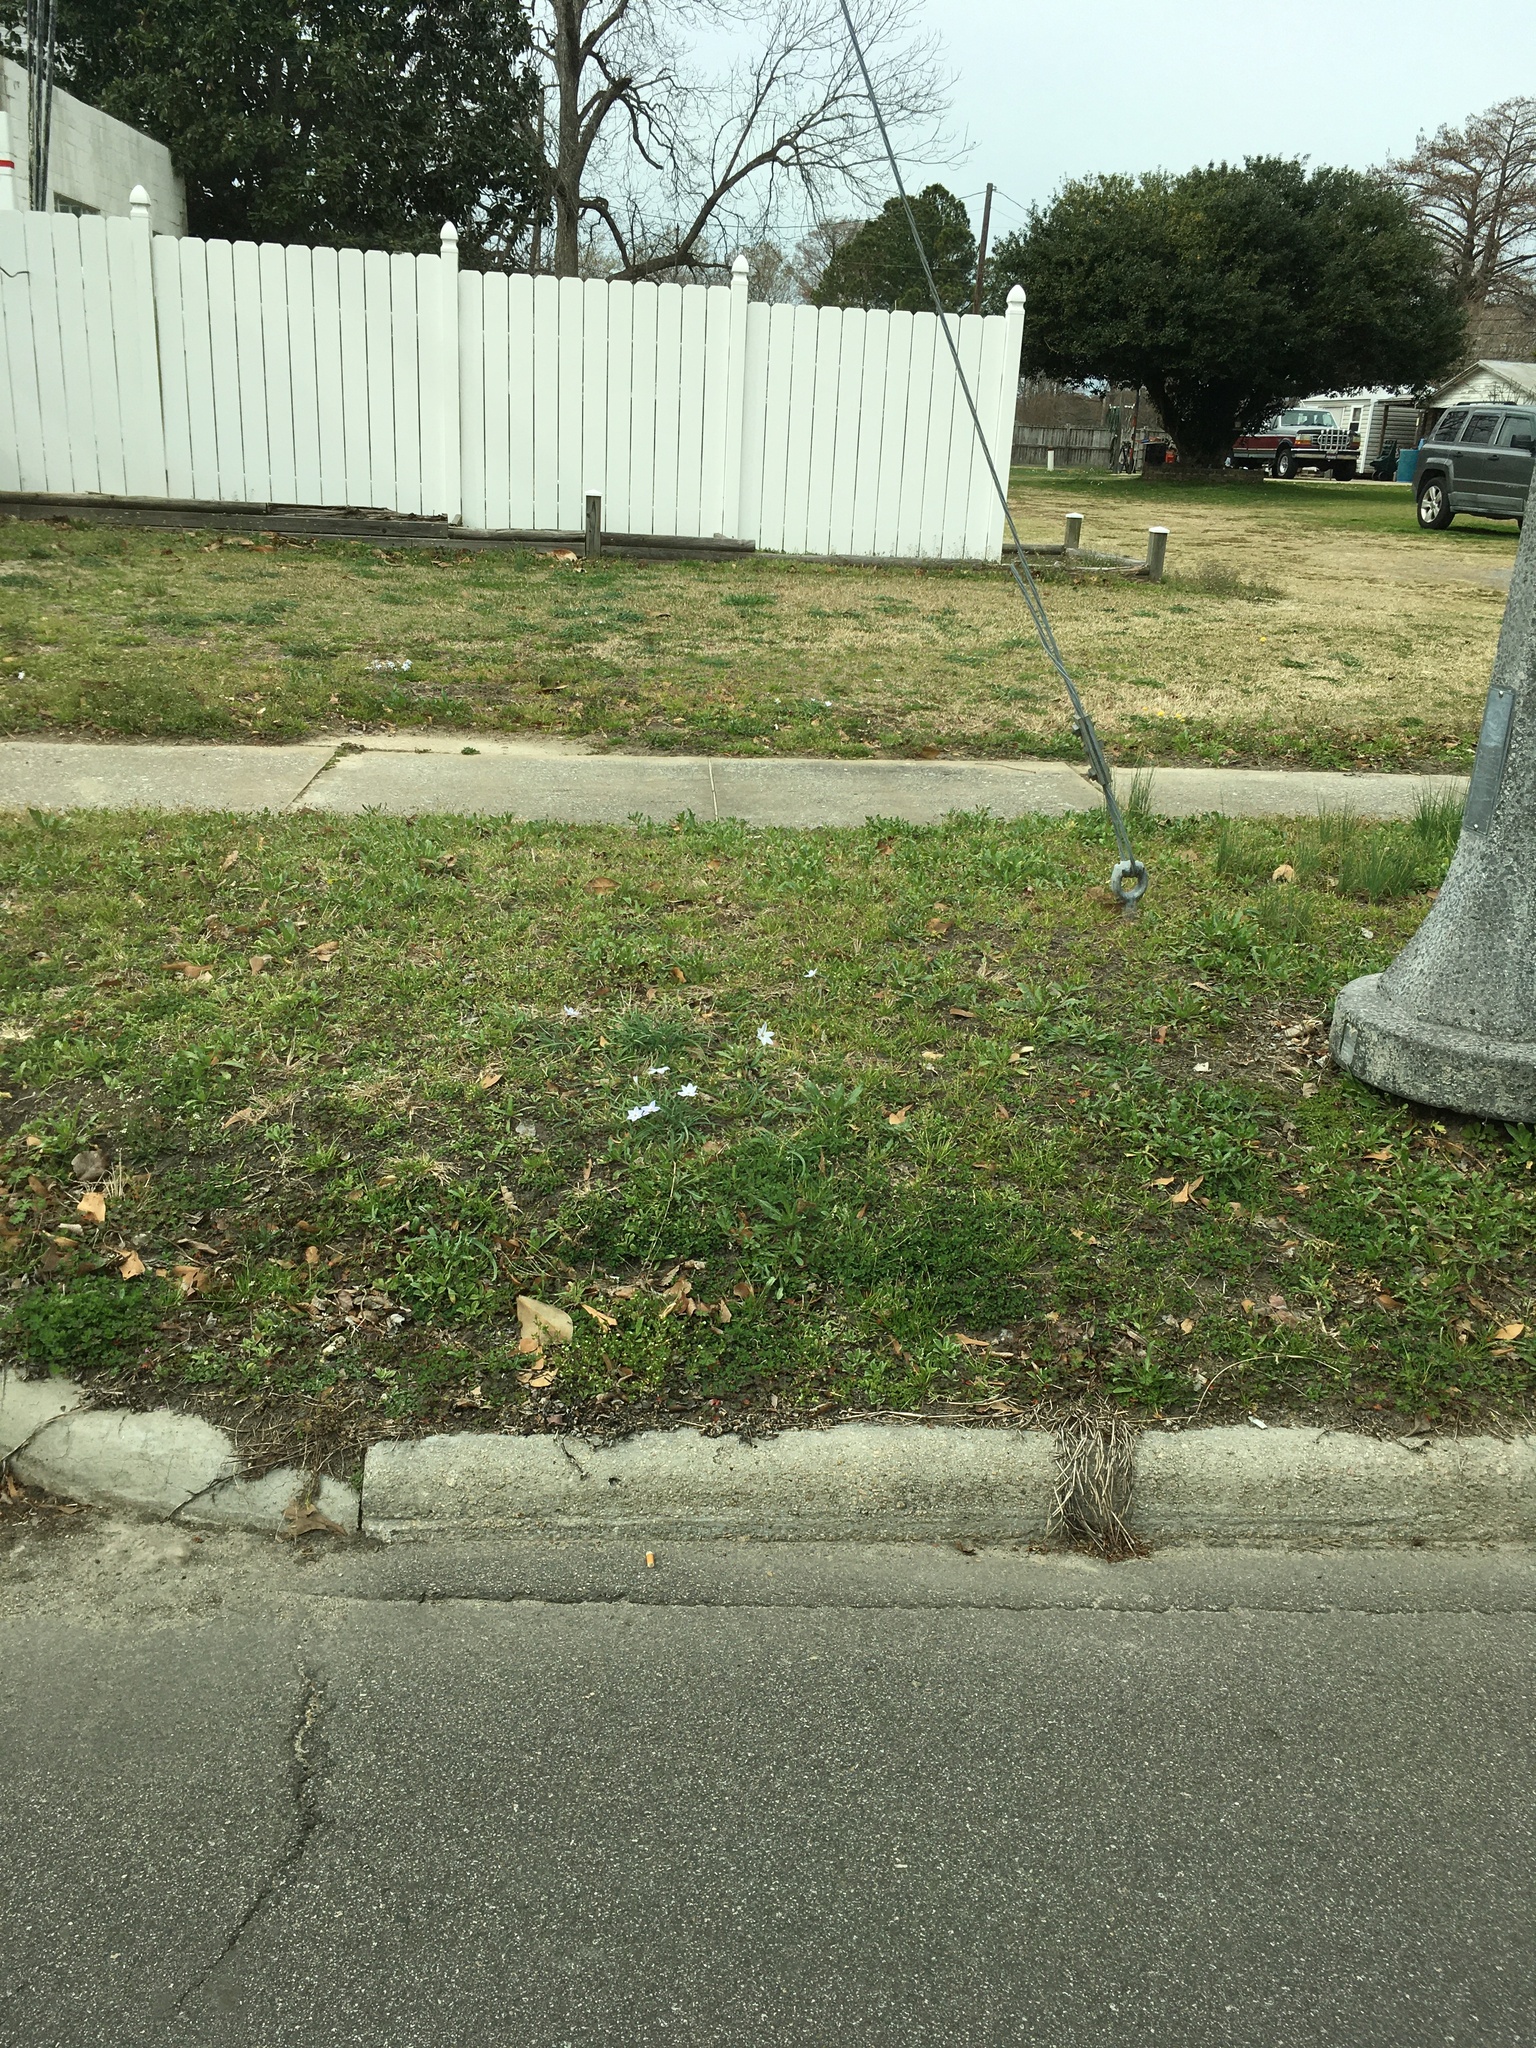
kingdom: Plantae
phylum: Tracheophyta
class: Liliopsida
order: Asparagales
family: Amaryllidaceae
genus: Ipheion
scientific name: Ipheion uniflorum
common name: Spring starflower
